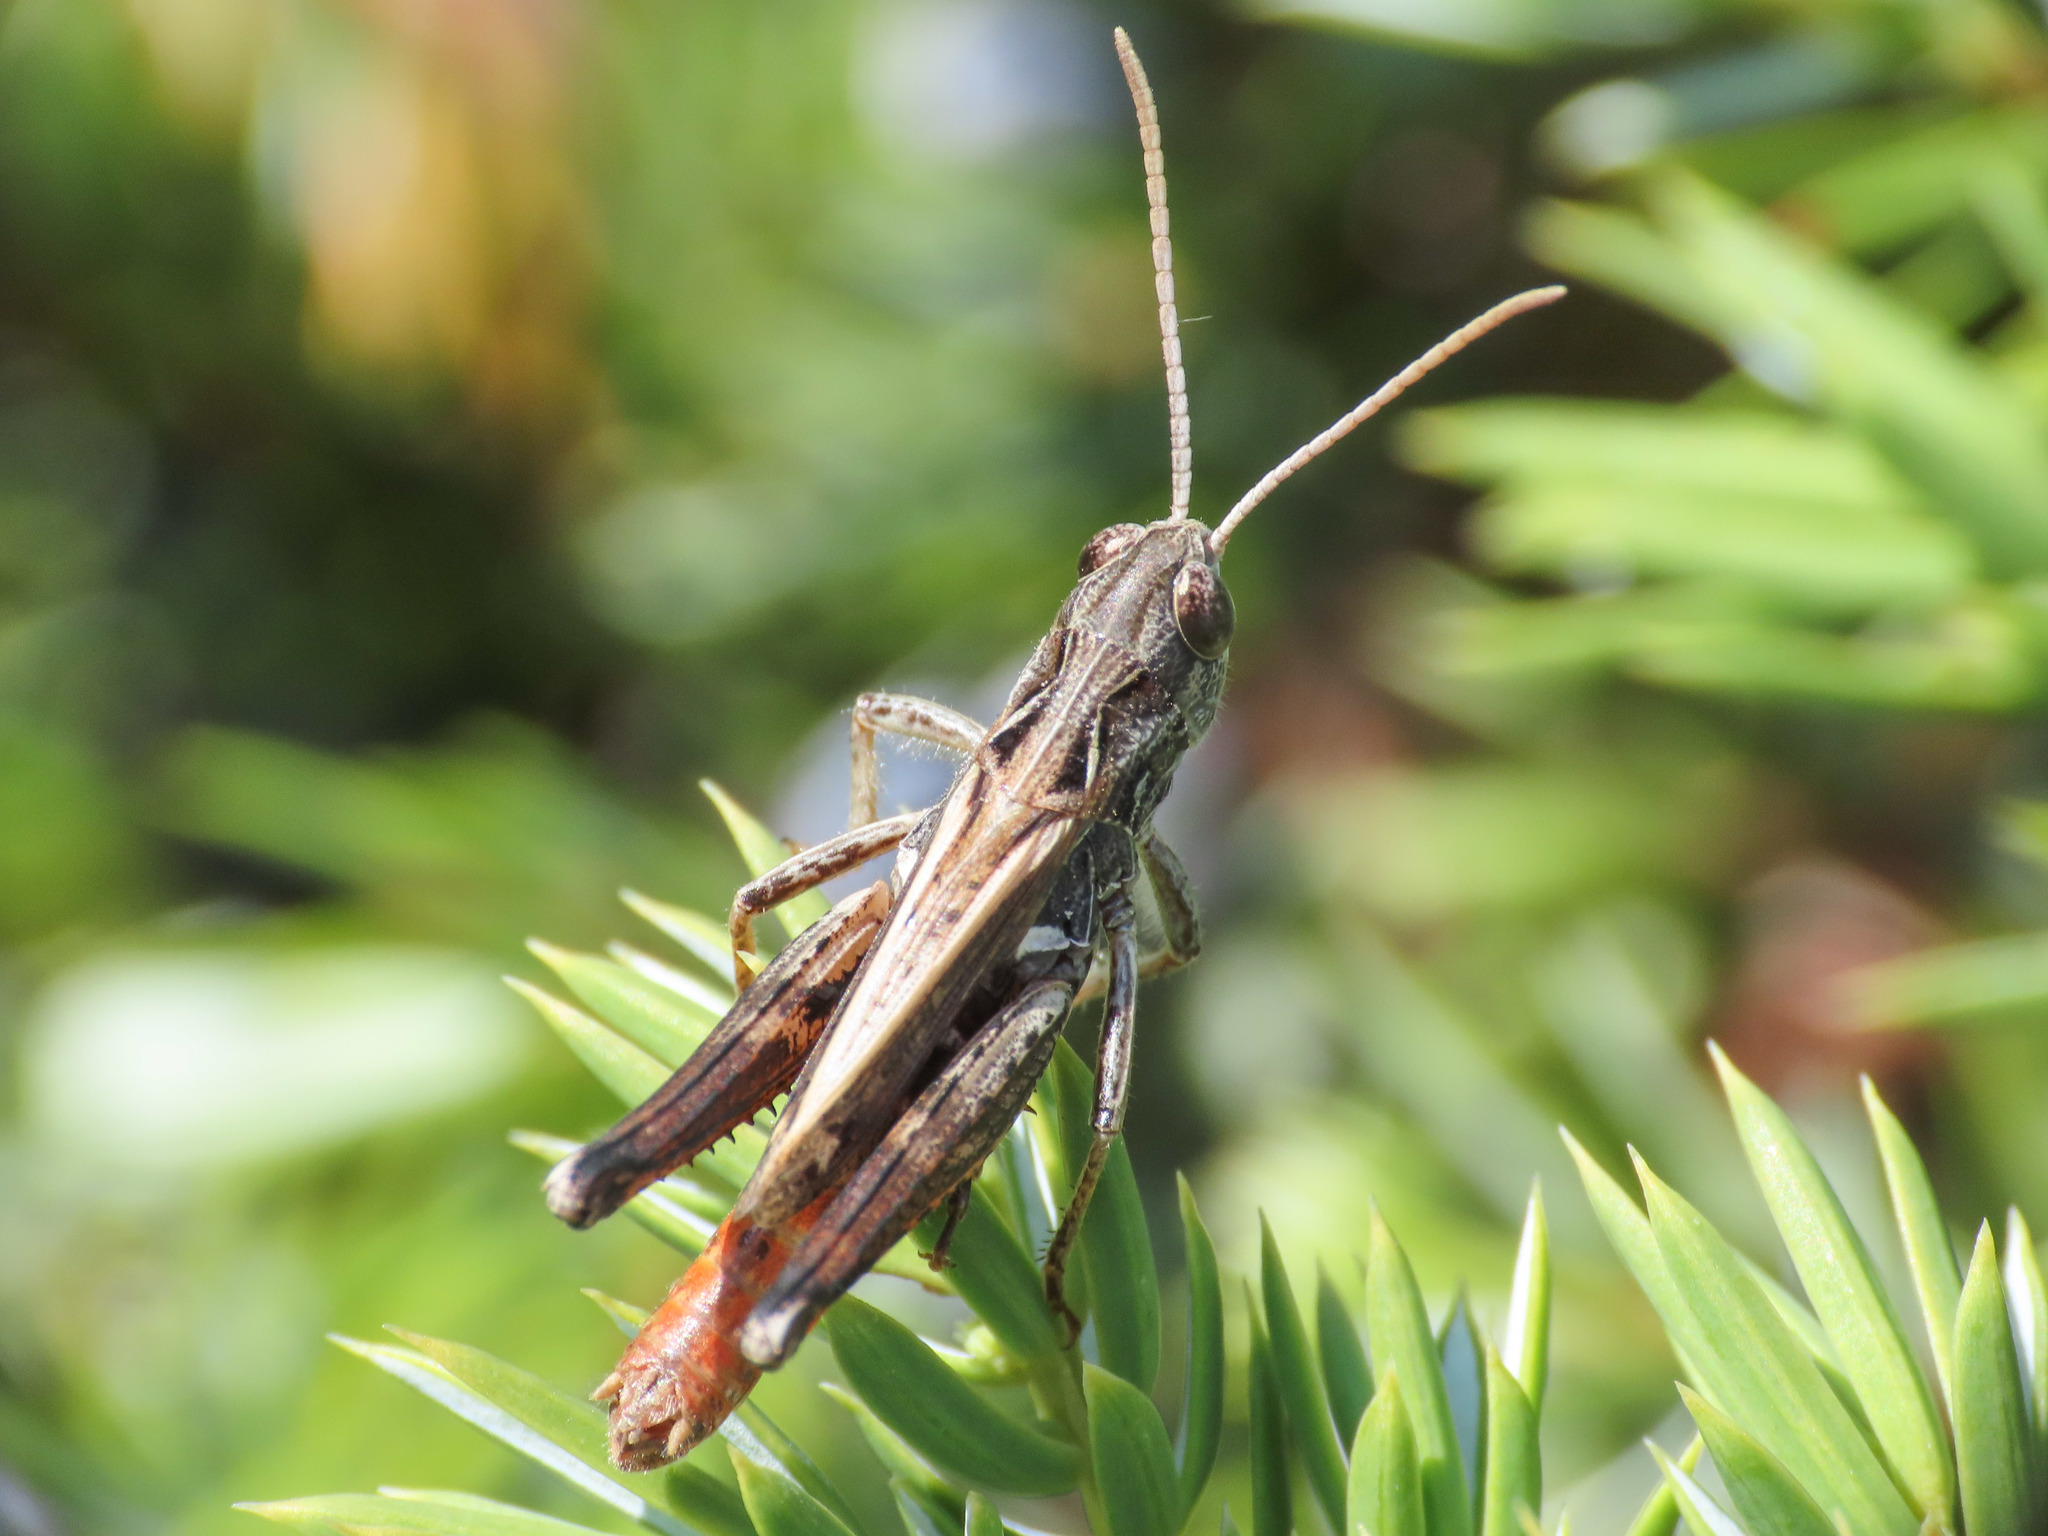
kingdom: Animalia
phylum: Arthropoda
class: Insecta
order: Orthoptera
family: Acrididae
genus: Italohippus
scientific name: Italohippus monticola
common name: Gran sasso italian grasshopper
